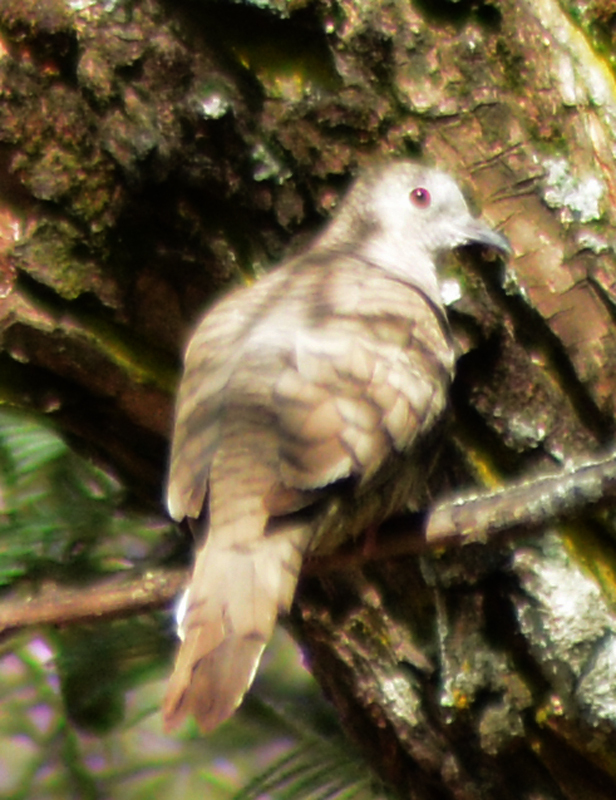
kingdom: Animalia
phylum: Chordata
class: Aves
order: Columbiformes
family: Columbidae
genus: Columbina
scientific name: Columbina inca
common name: Inca dove
